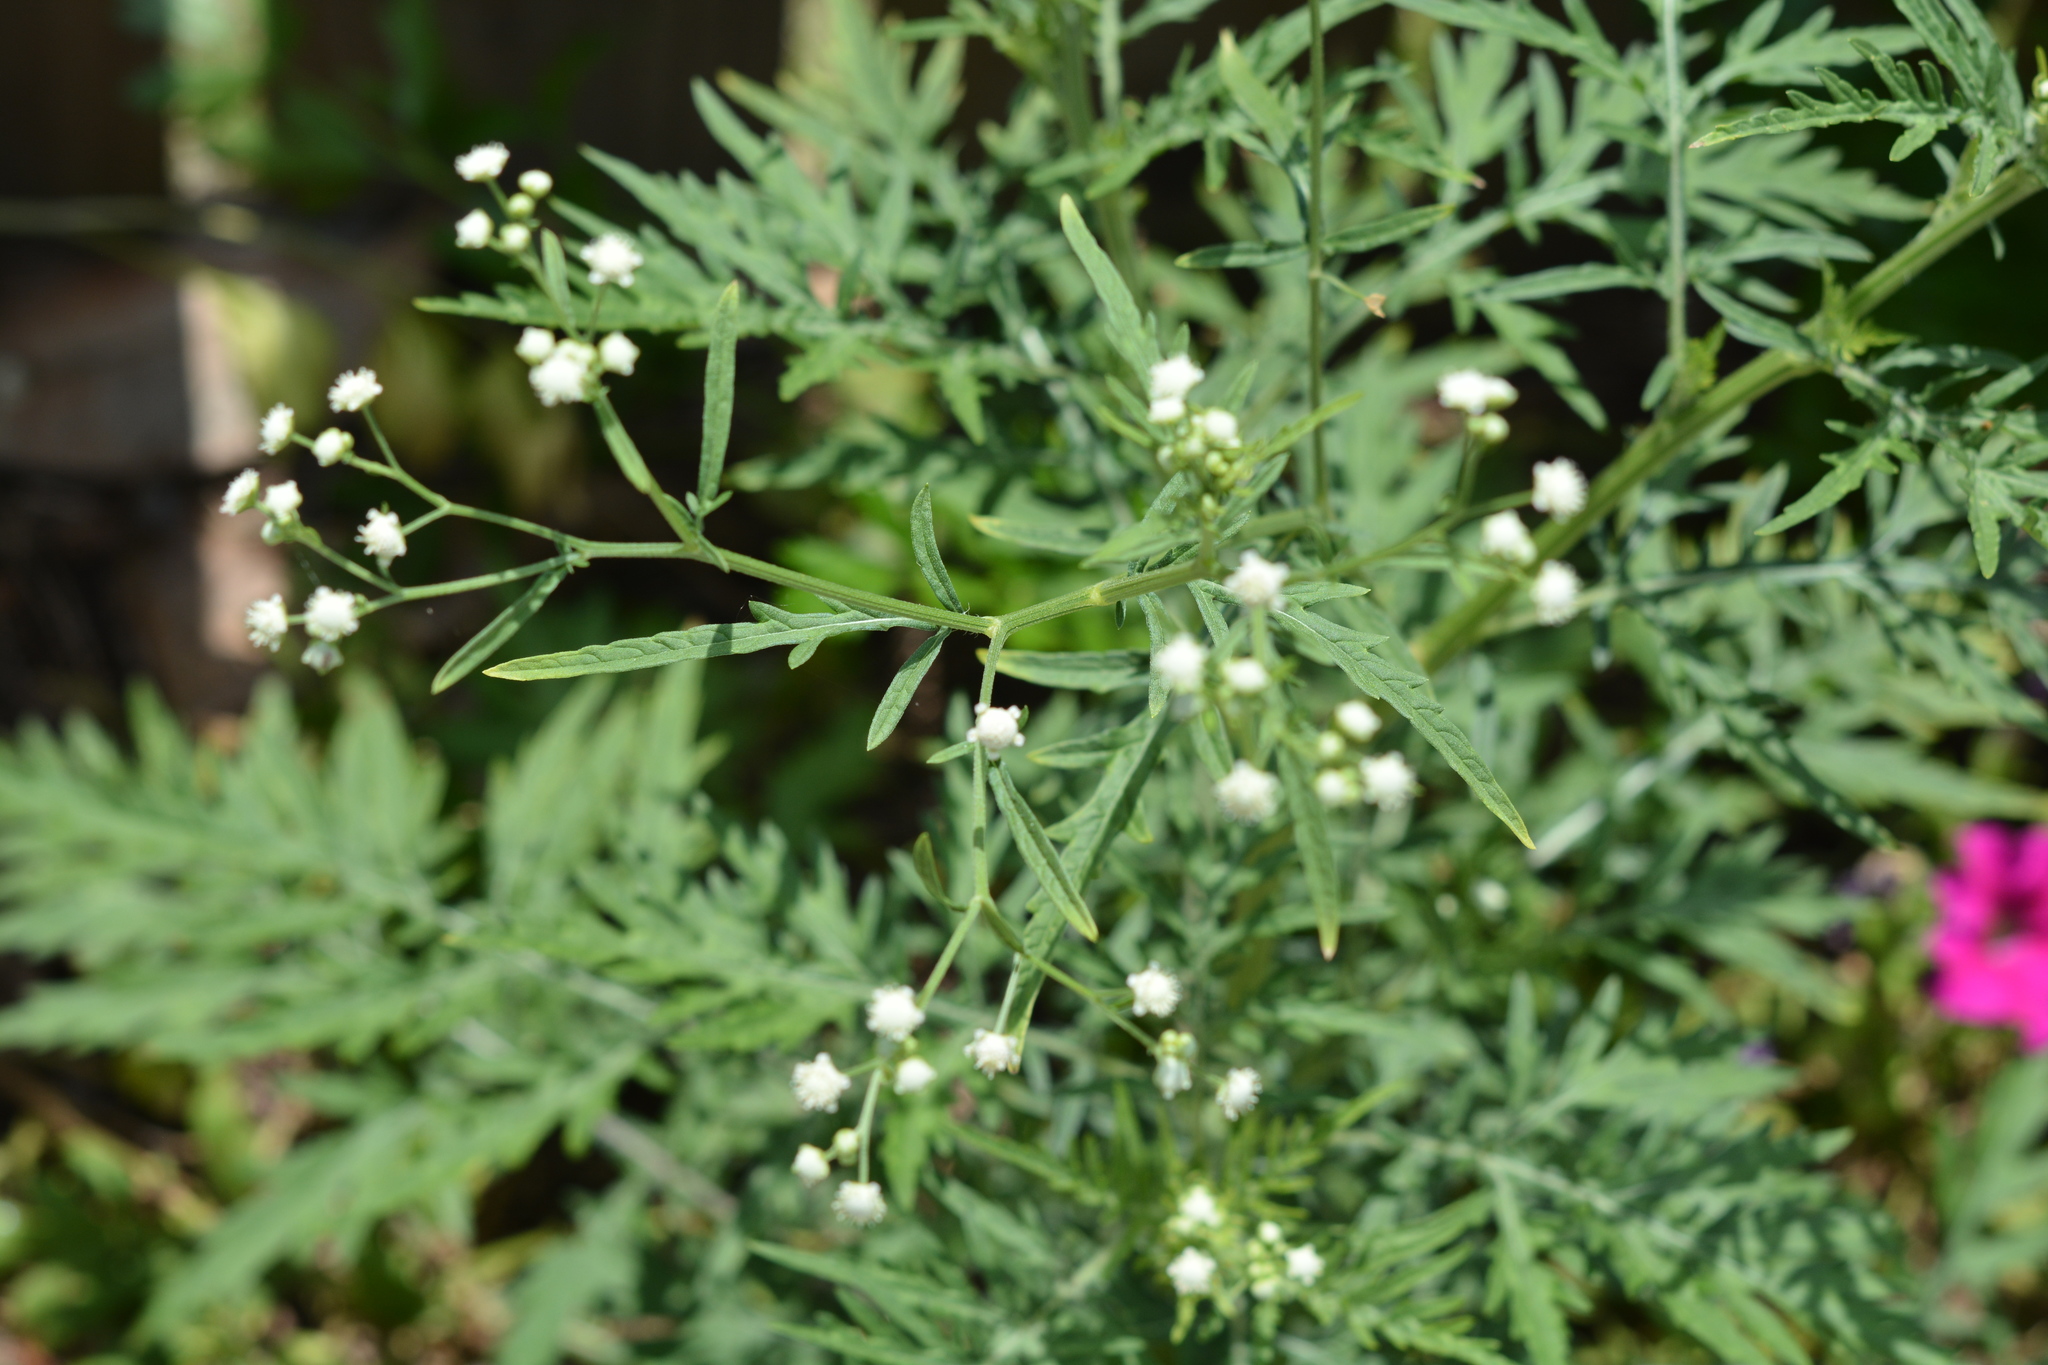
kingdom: Plantae
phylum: Tracheophyta
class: Magnoliopsida
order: Asterales
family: Asteraceae
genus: Parthenium
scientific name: Parthenium hysterophorus
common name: Santa maria feverfew
